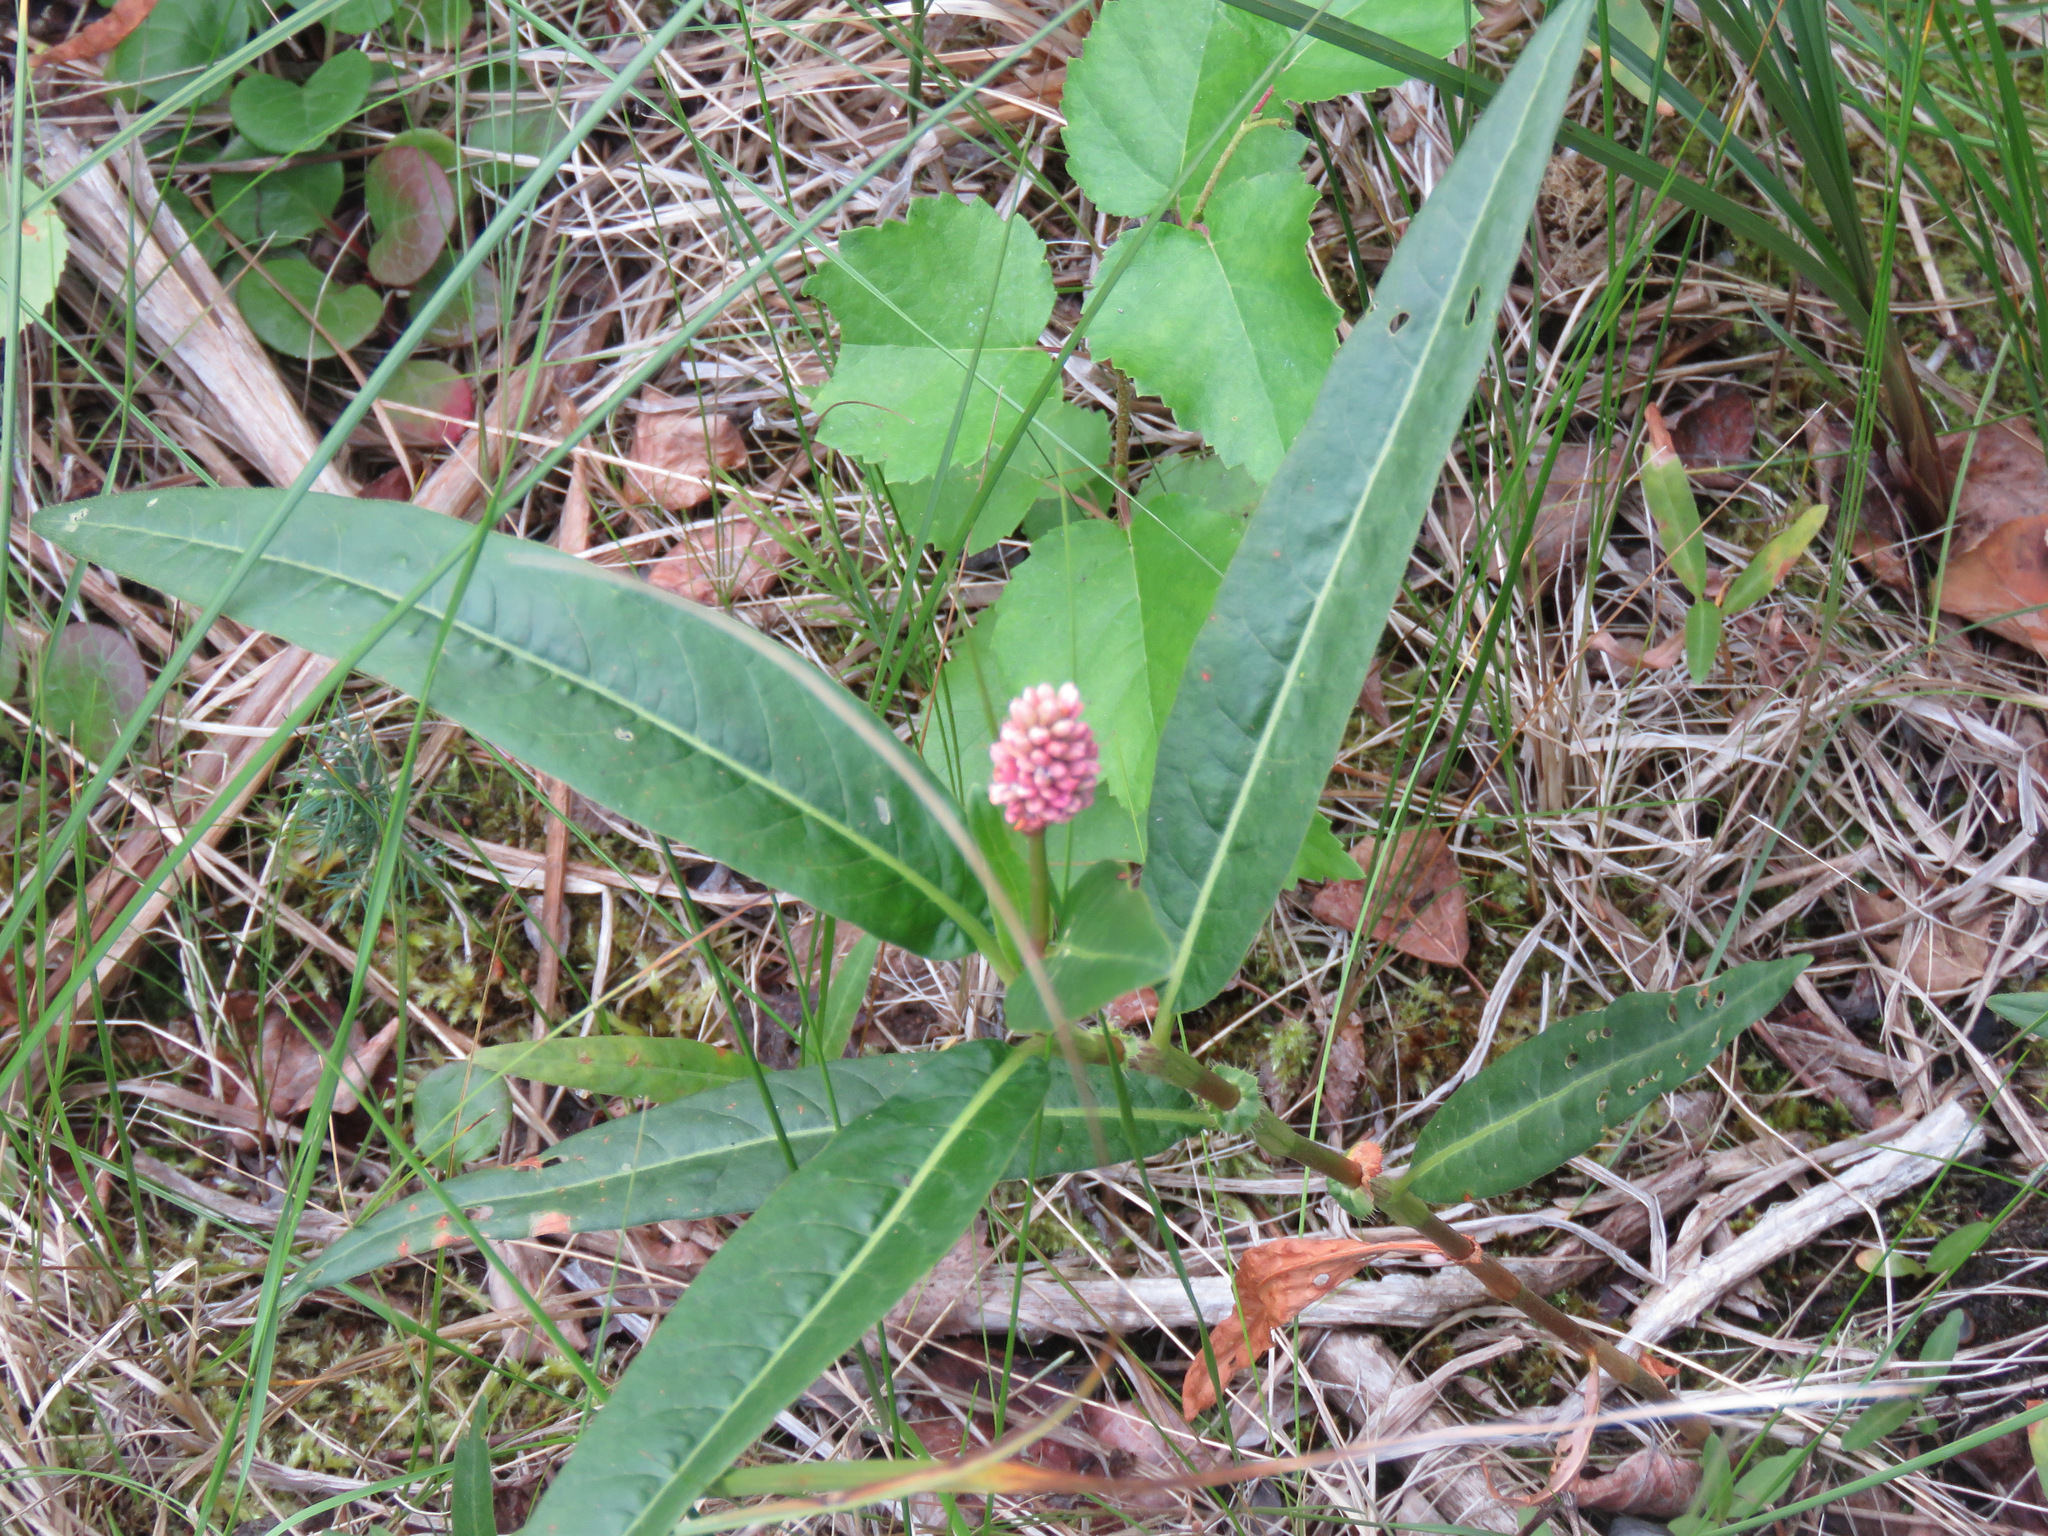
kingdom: Plantae
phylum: Tracheophyta
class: Magnoliopsida
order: Caryophyllales
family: Polygonaceae
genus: Persicaria
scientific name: Persicaria amphibia
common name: Amphibious bistort
